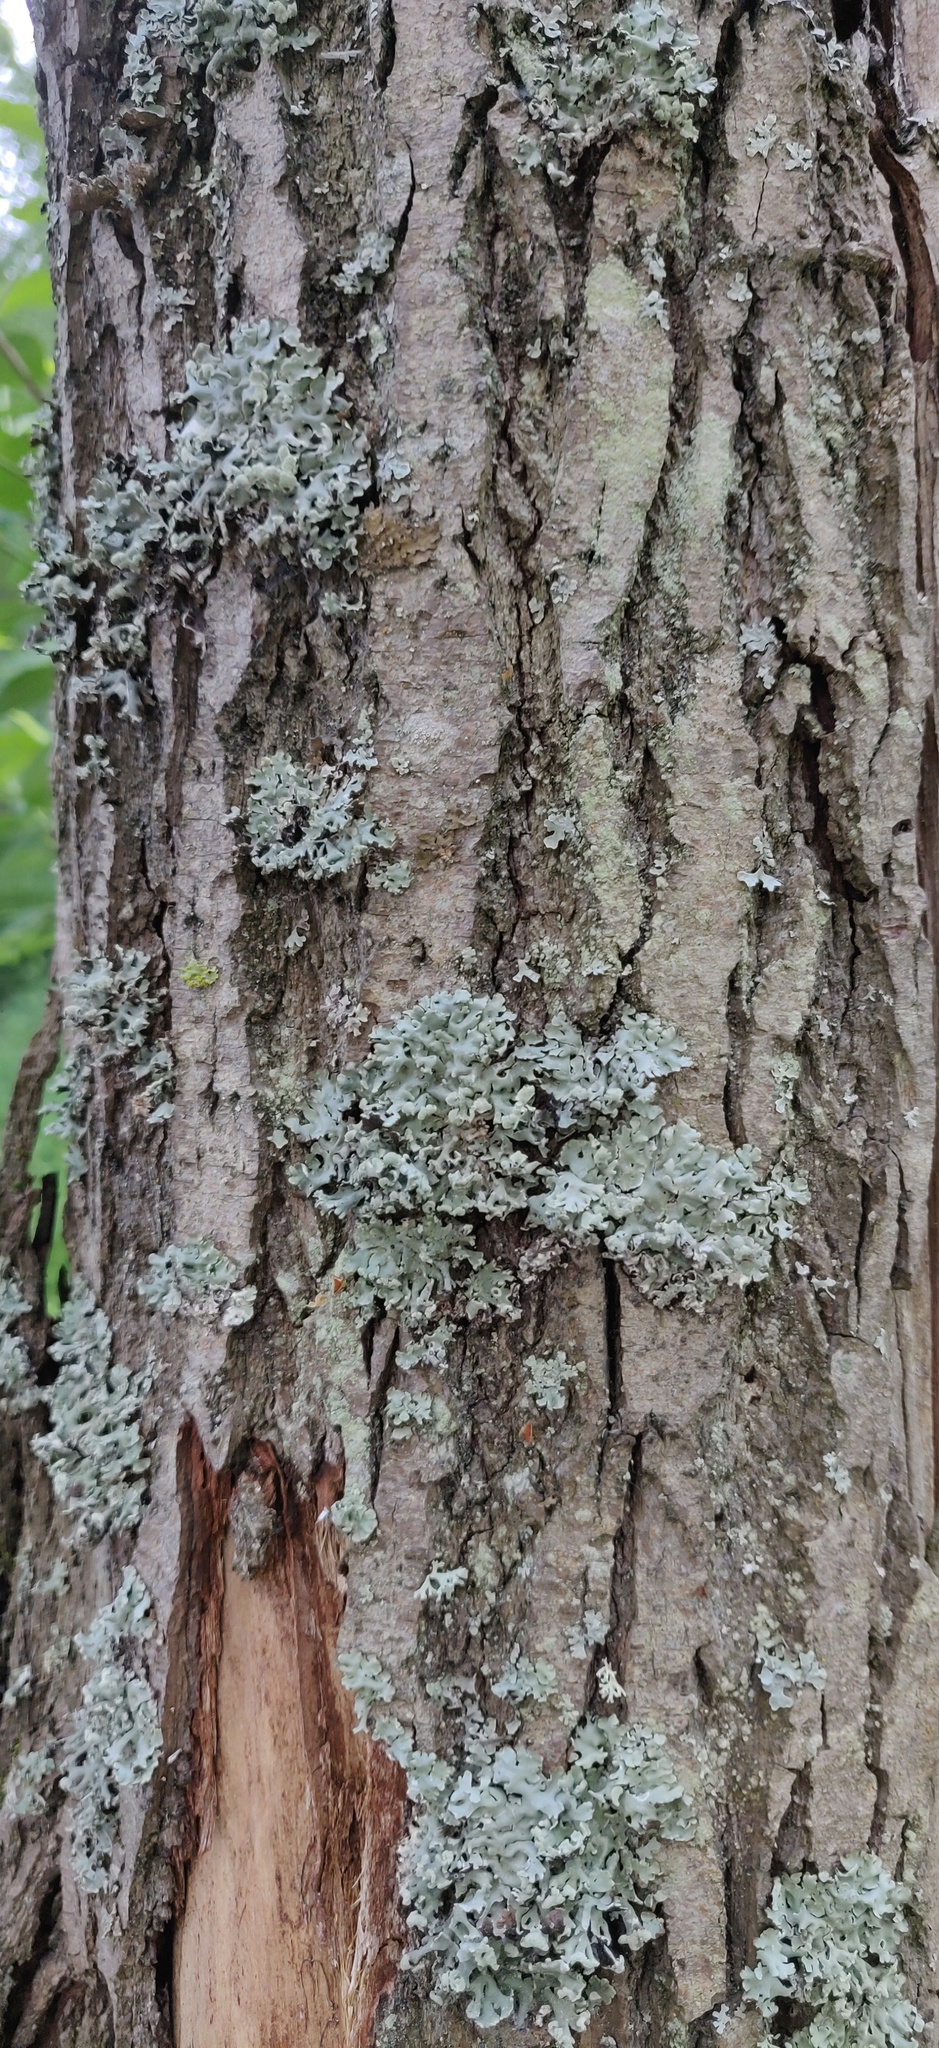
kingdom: Fungi
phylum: Ascomycota
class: Lecanoromycetes
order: Lecanorales
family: Parmeliaceae
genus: Hypogymnia
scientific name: Hypogymnia physodes
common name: Dark crottle
